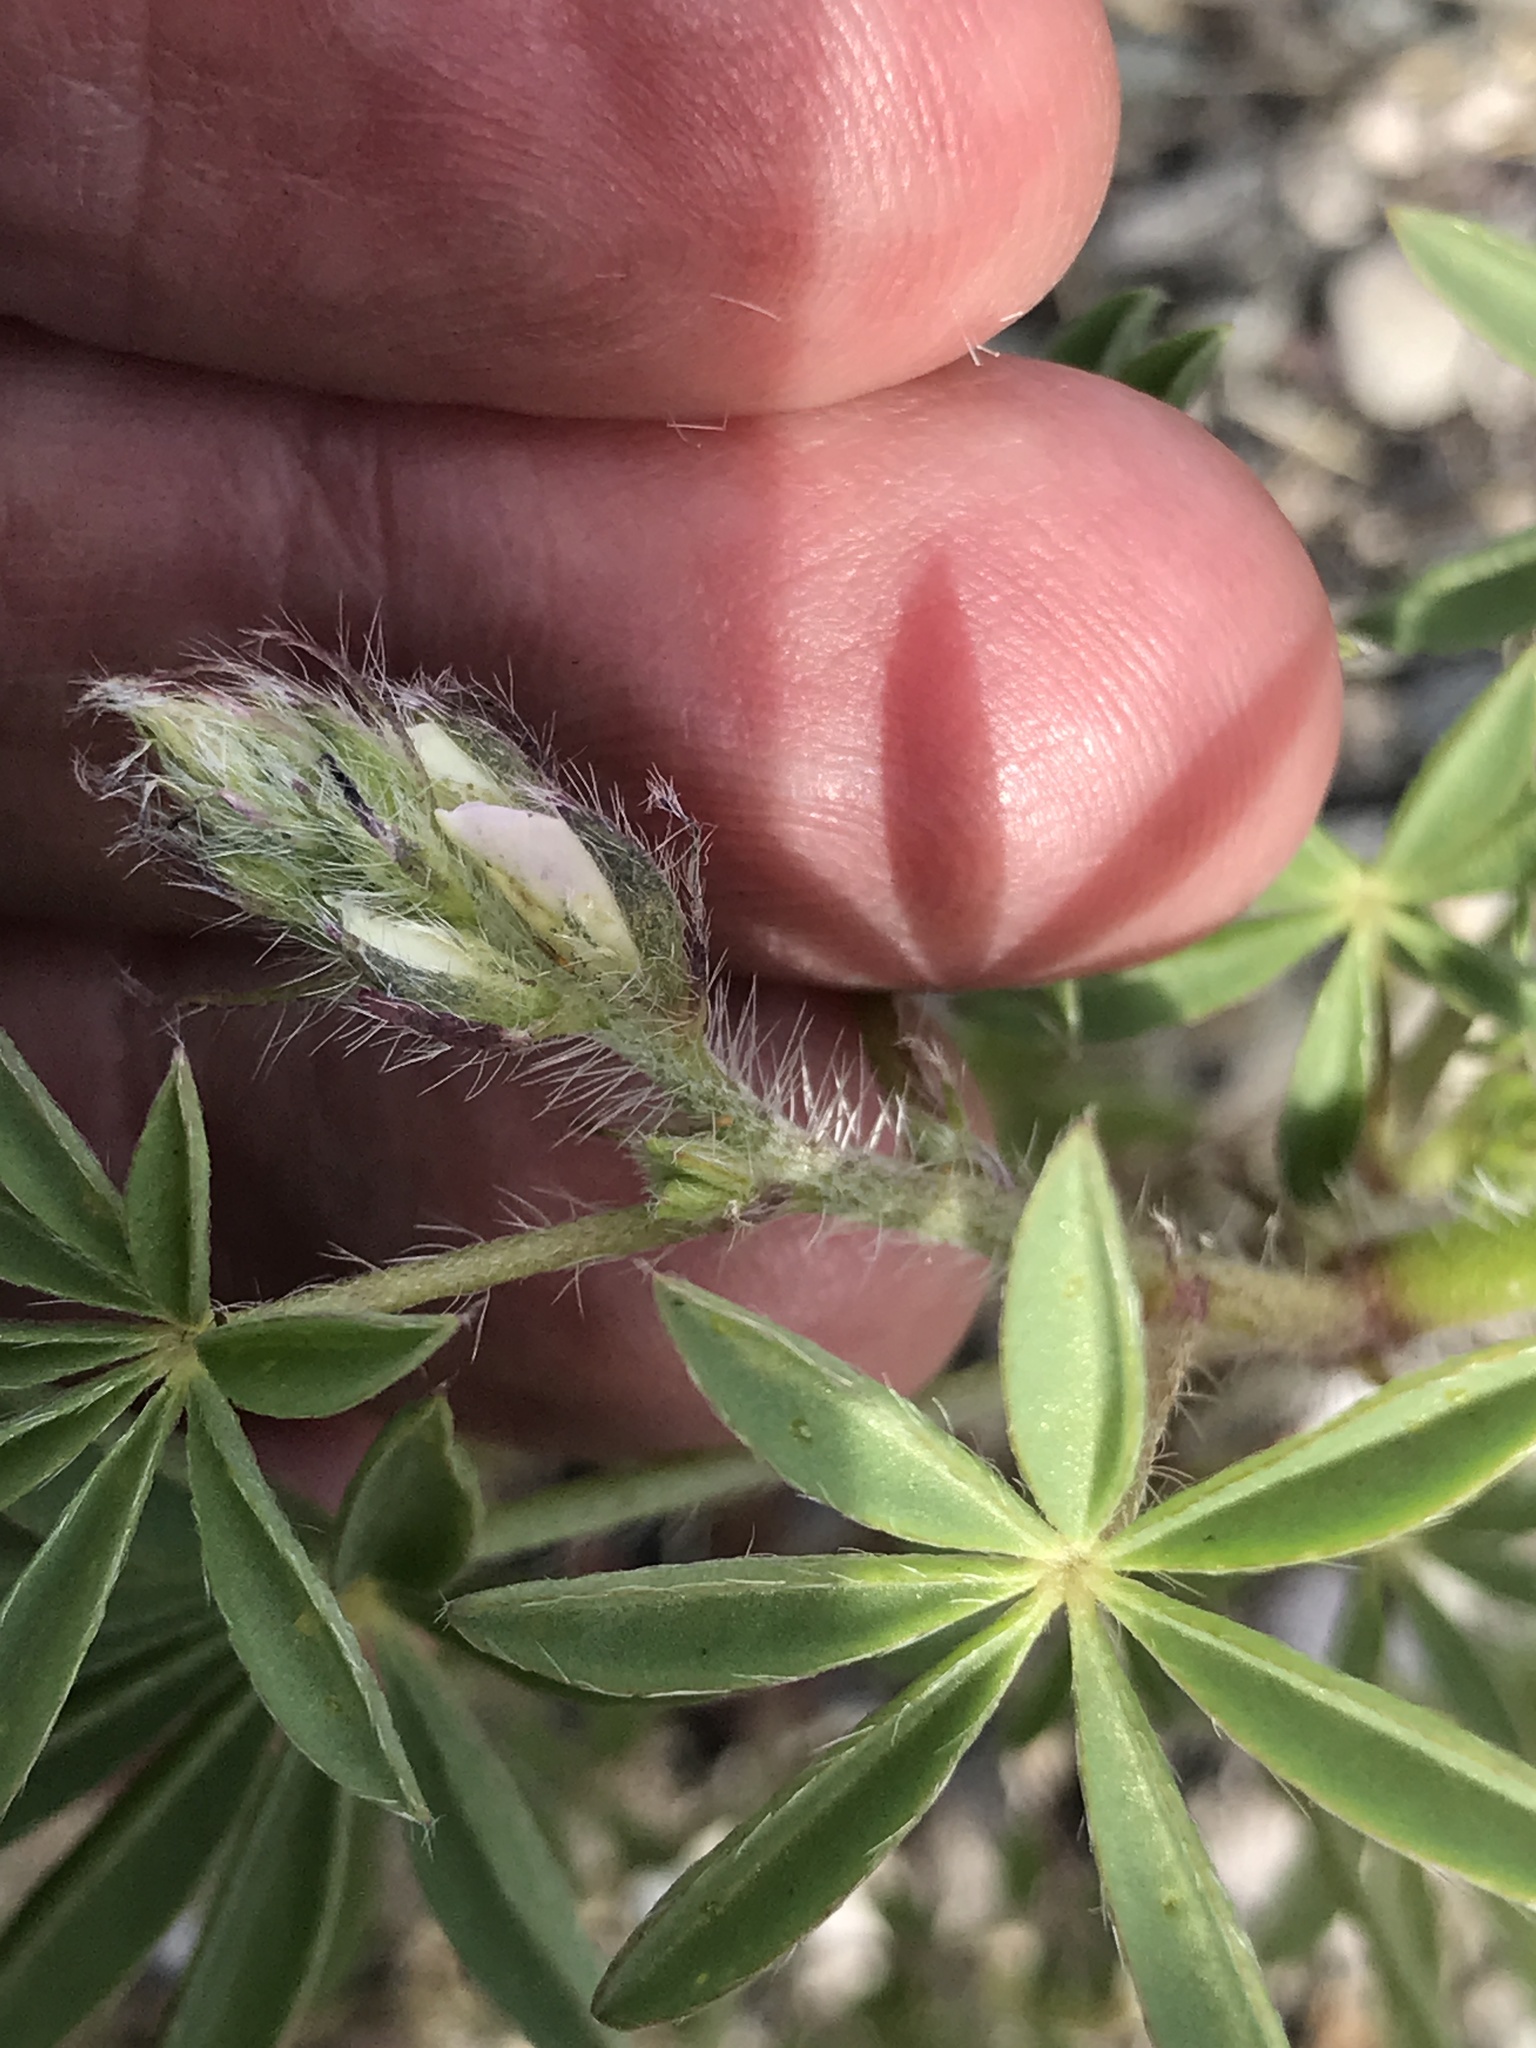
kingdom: Plantae
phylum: Tracheophyta
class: Magnoliopsida
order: Fabales
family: Fabaceae
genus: Lupinus
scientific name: Lupinus arizonicus
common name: Arizona lupine
